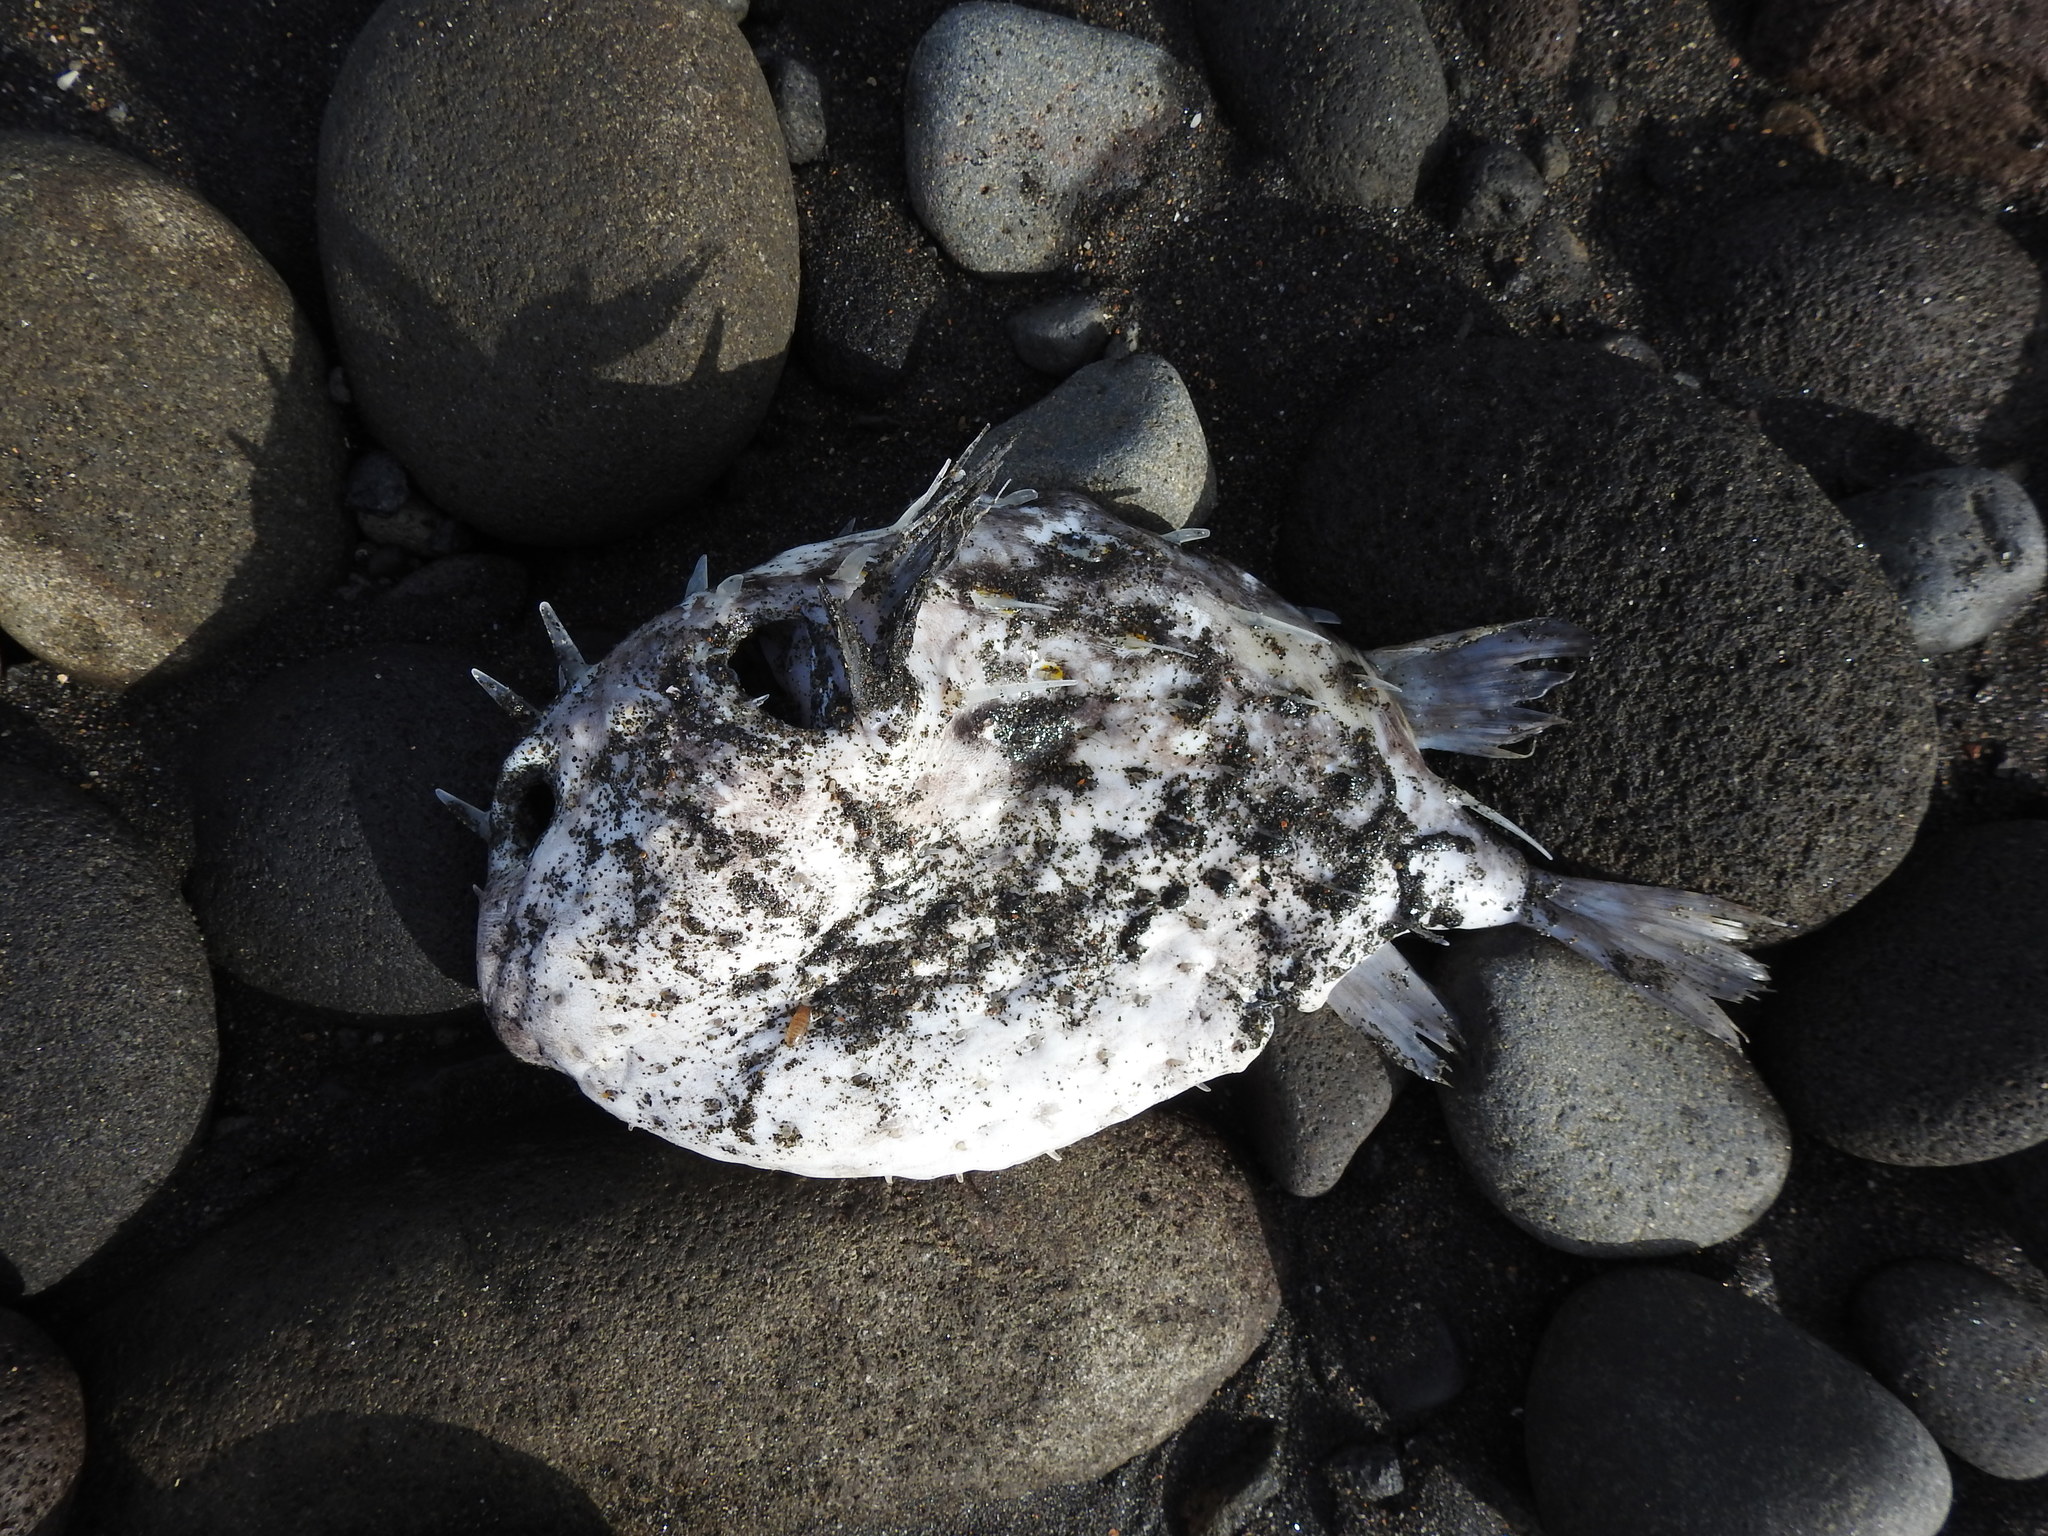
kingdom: Animalia
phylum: Chordata
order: Tetraodontiformes
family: Diodontidae
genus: Allomycterus
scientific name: Allomycterus pilatus
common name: No common name
